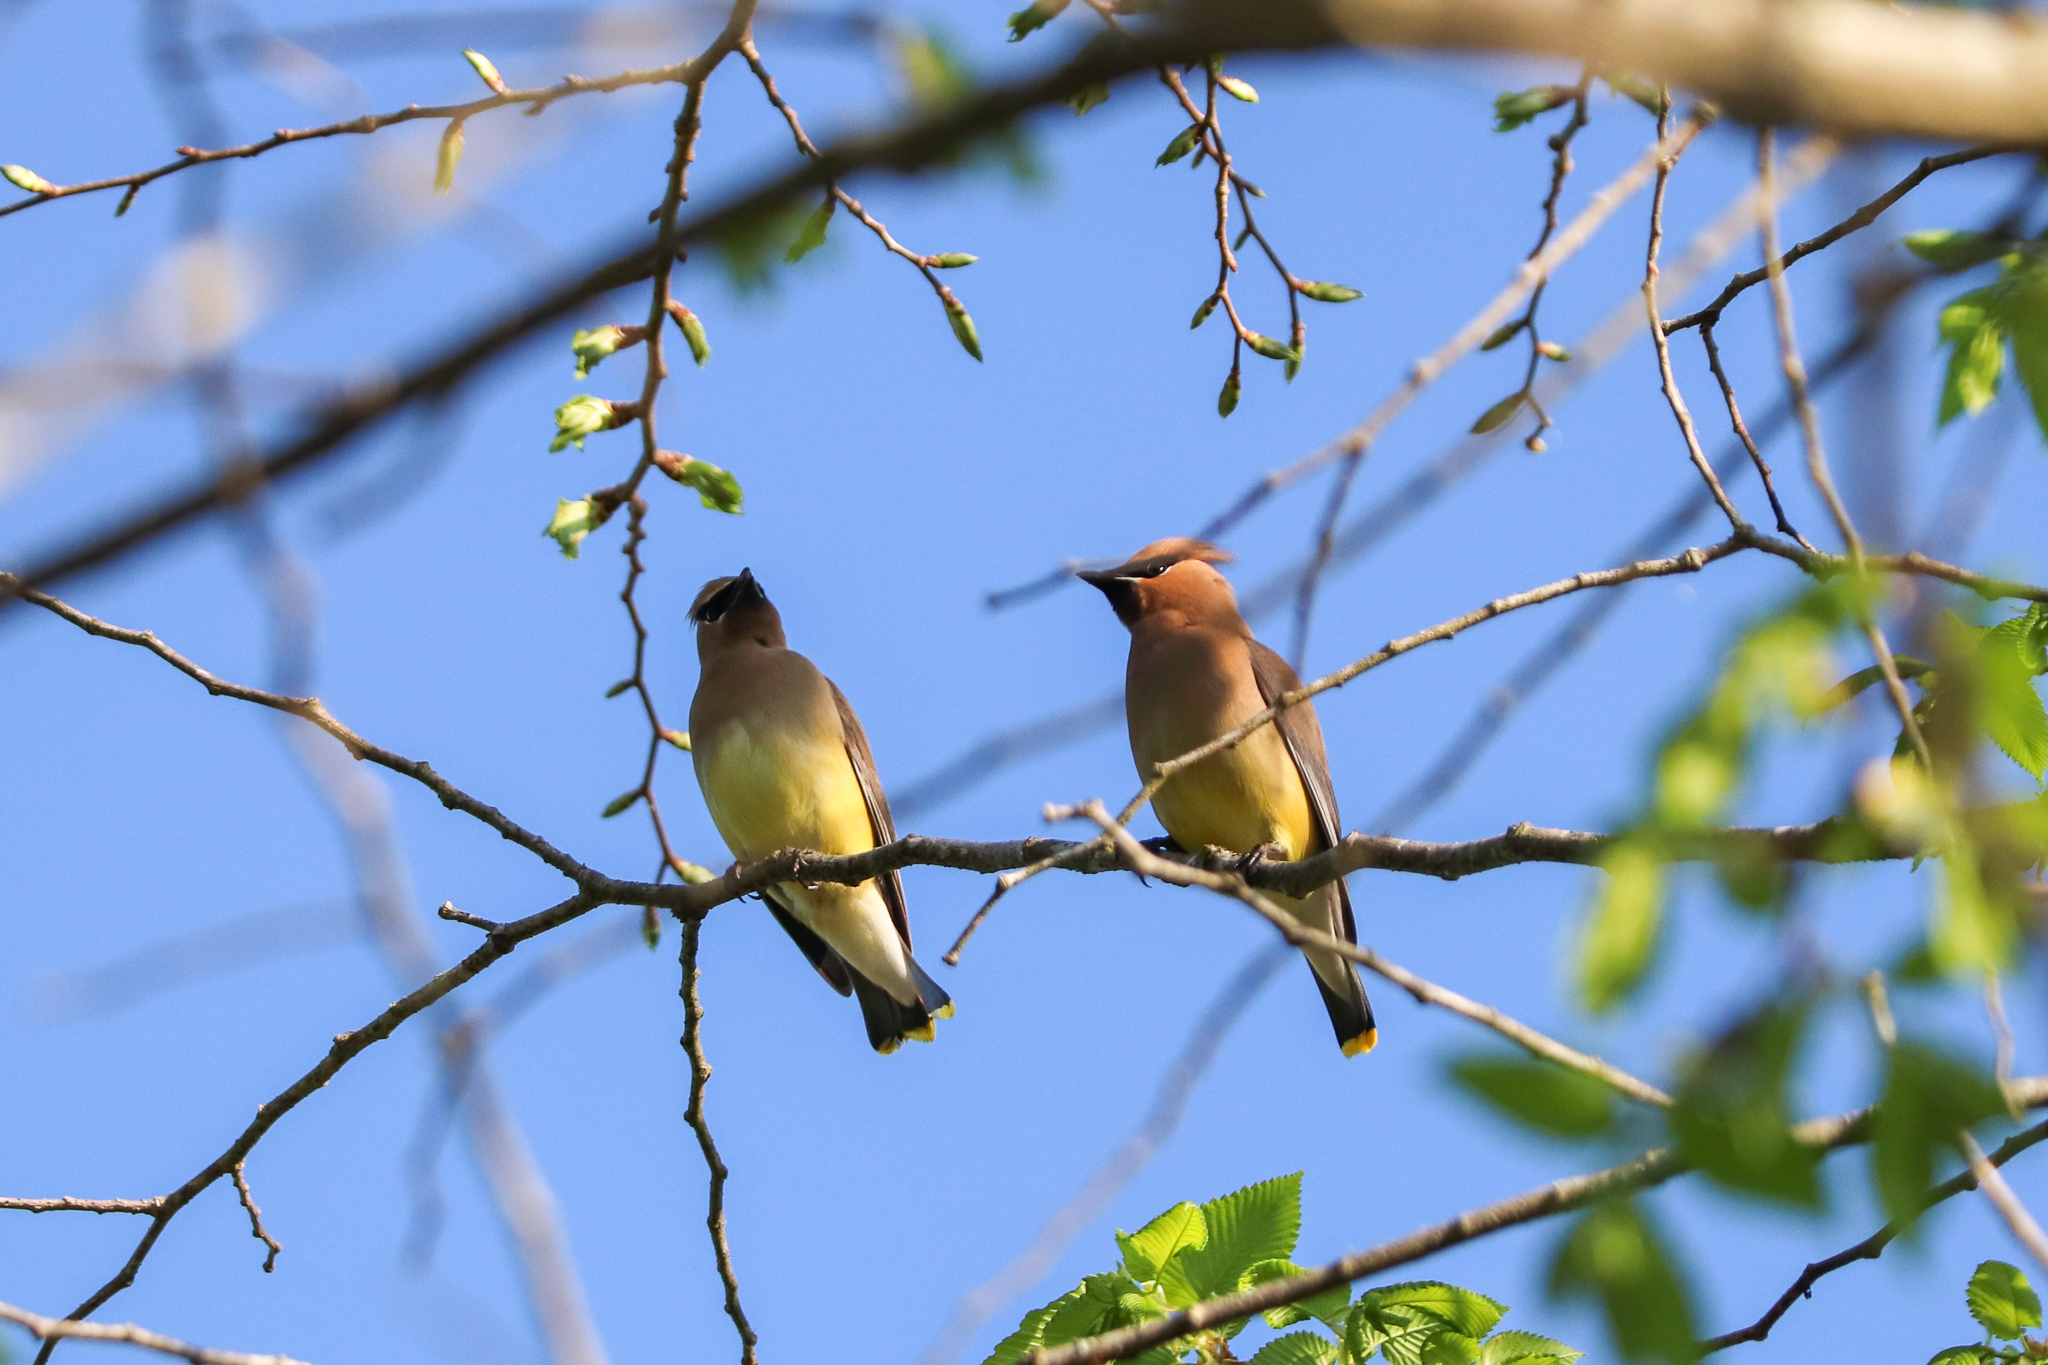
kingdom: Animalia
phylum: Chordata
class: Aves
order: Passeriformes
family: Bombycillidae
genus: Bombycilla
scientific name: Bombycilla cedrorum
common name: Cedar waxwing
